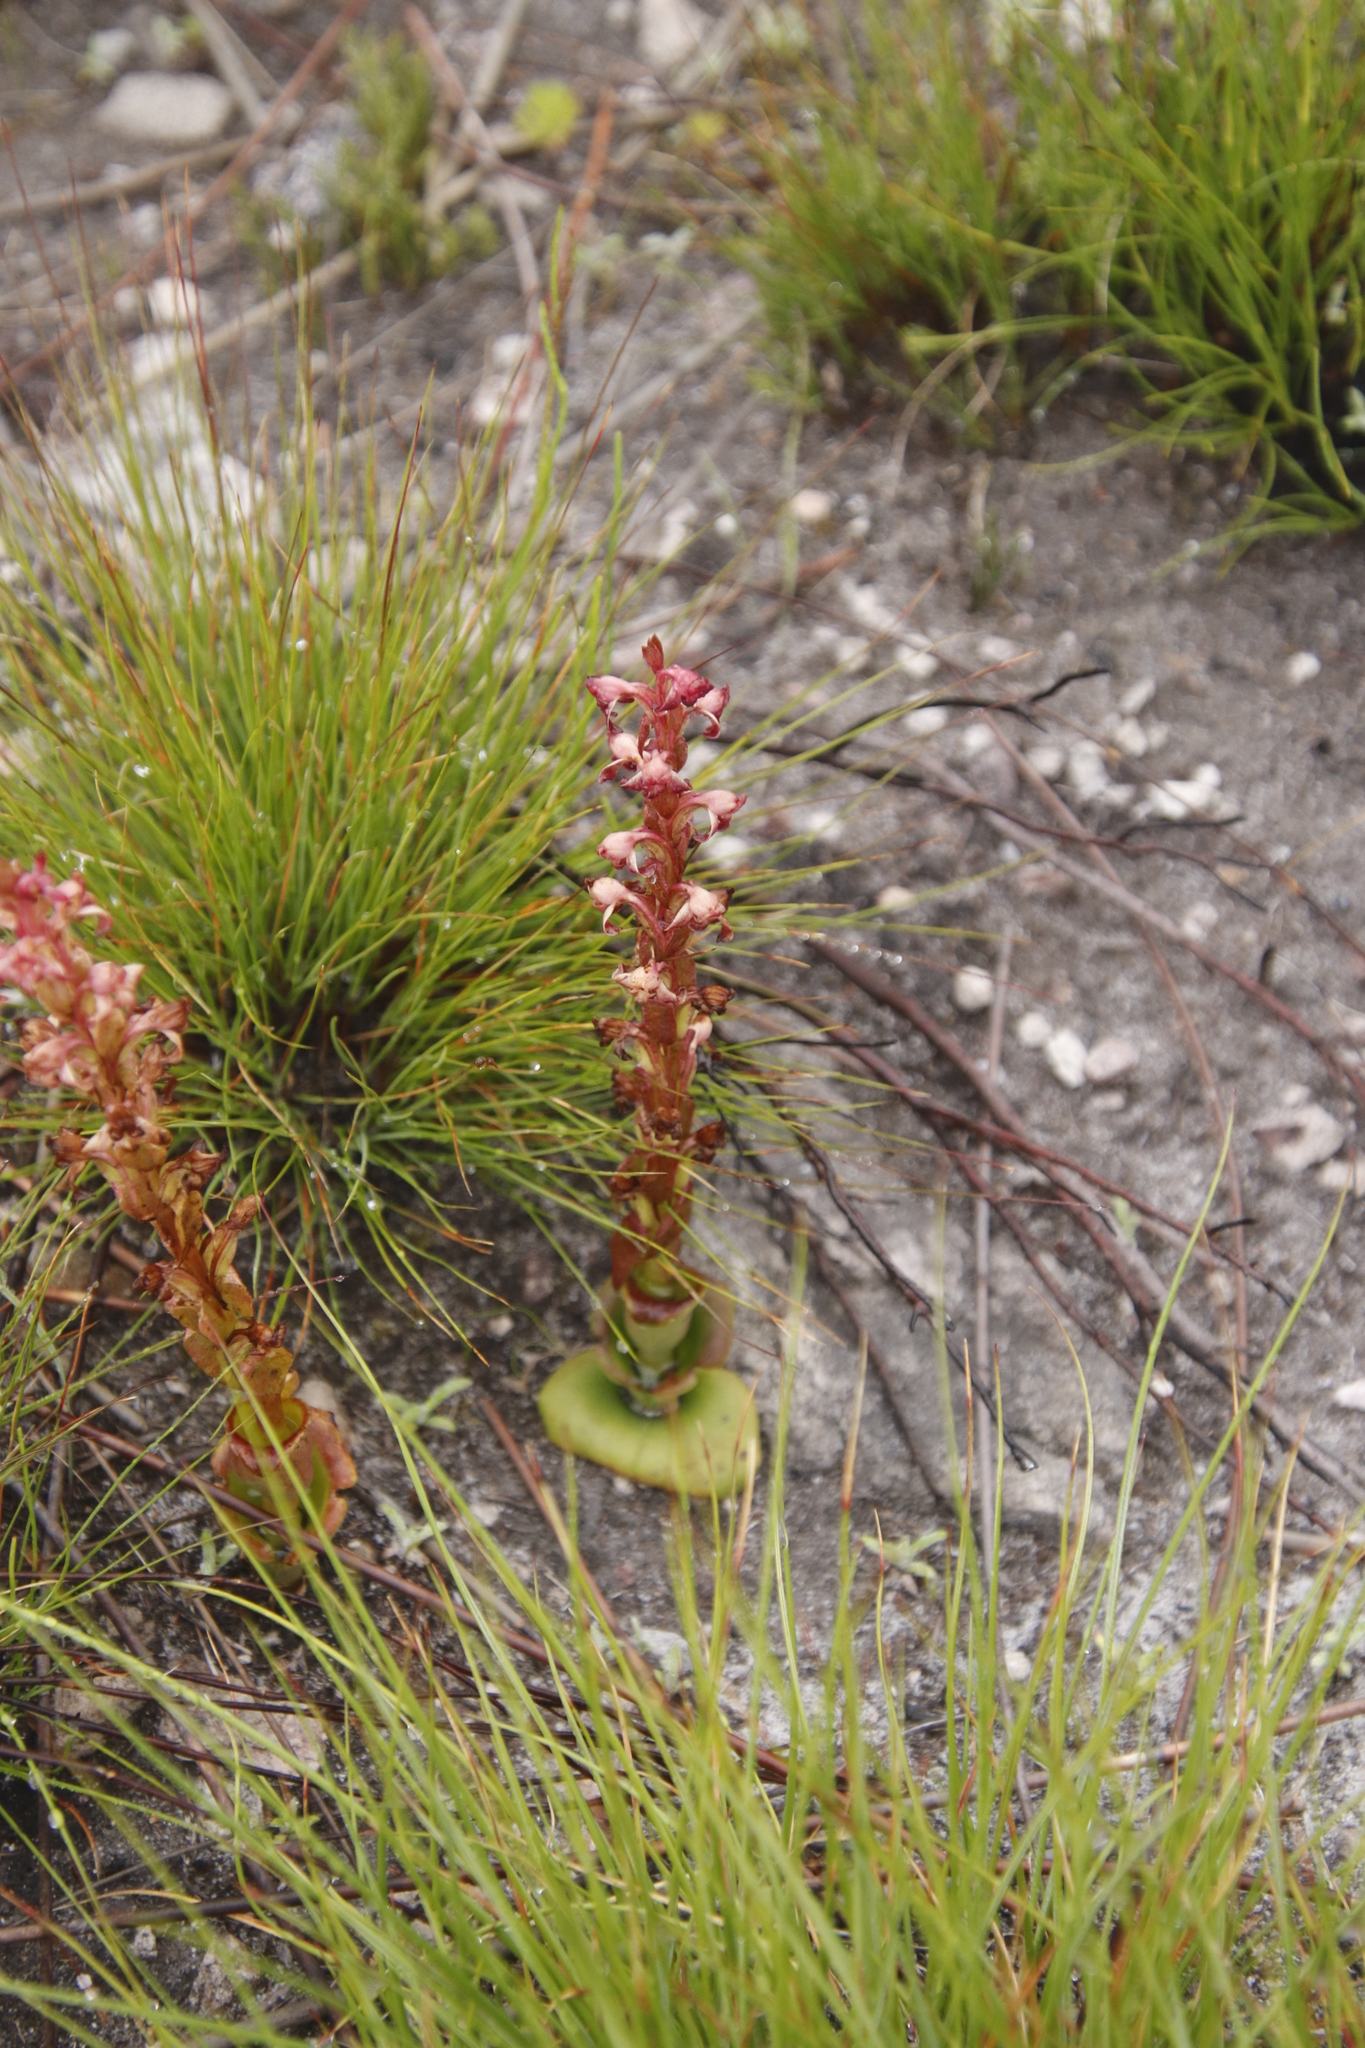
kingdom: Plantae
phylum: Tracheophyta
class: Liliopsida
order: Asparagales
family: Orchidaceae
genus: Satyrium
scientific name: Satyrium situsanguinum
